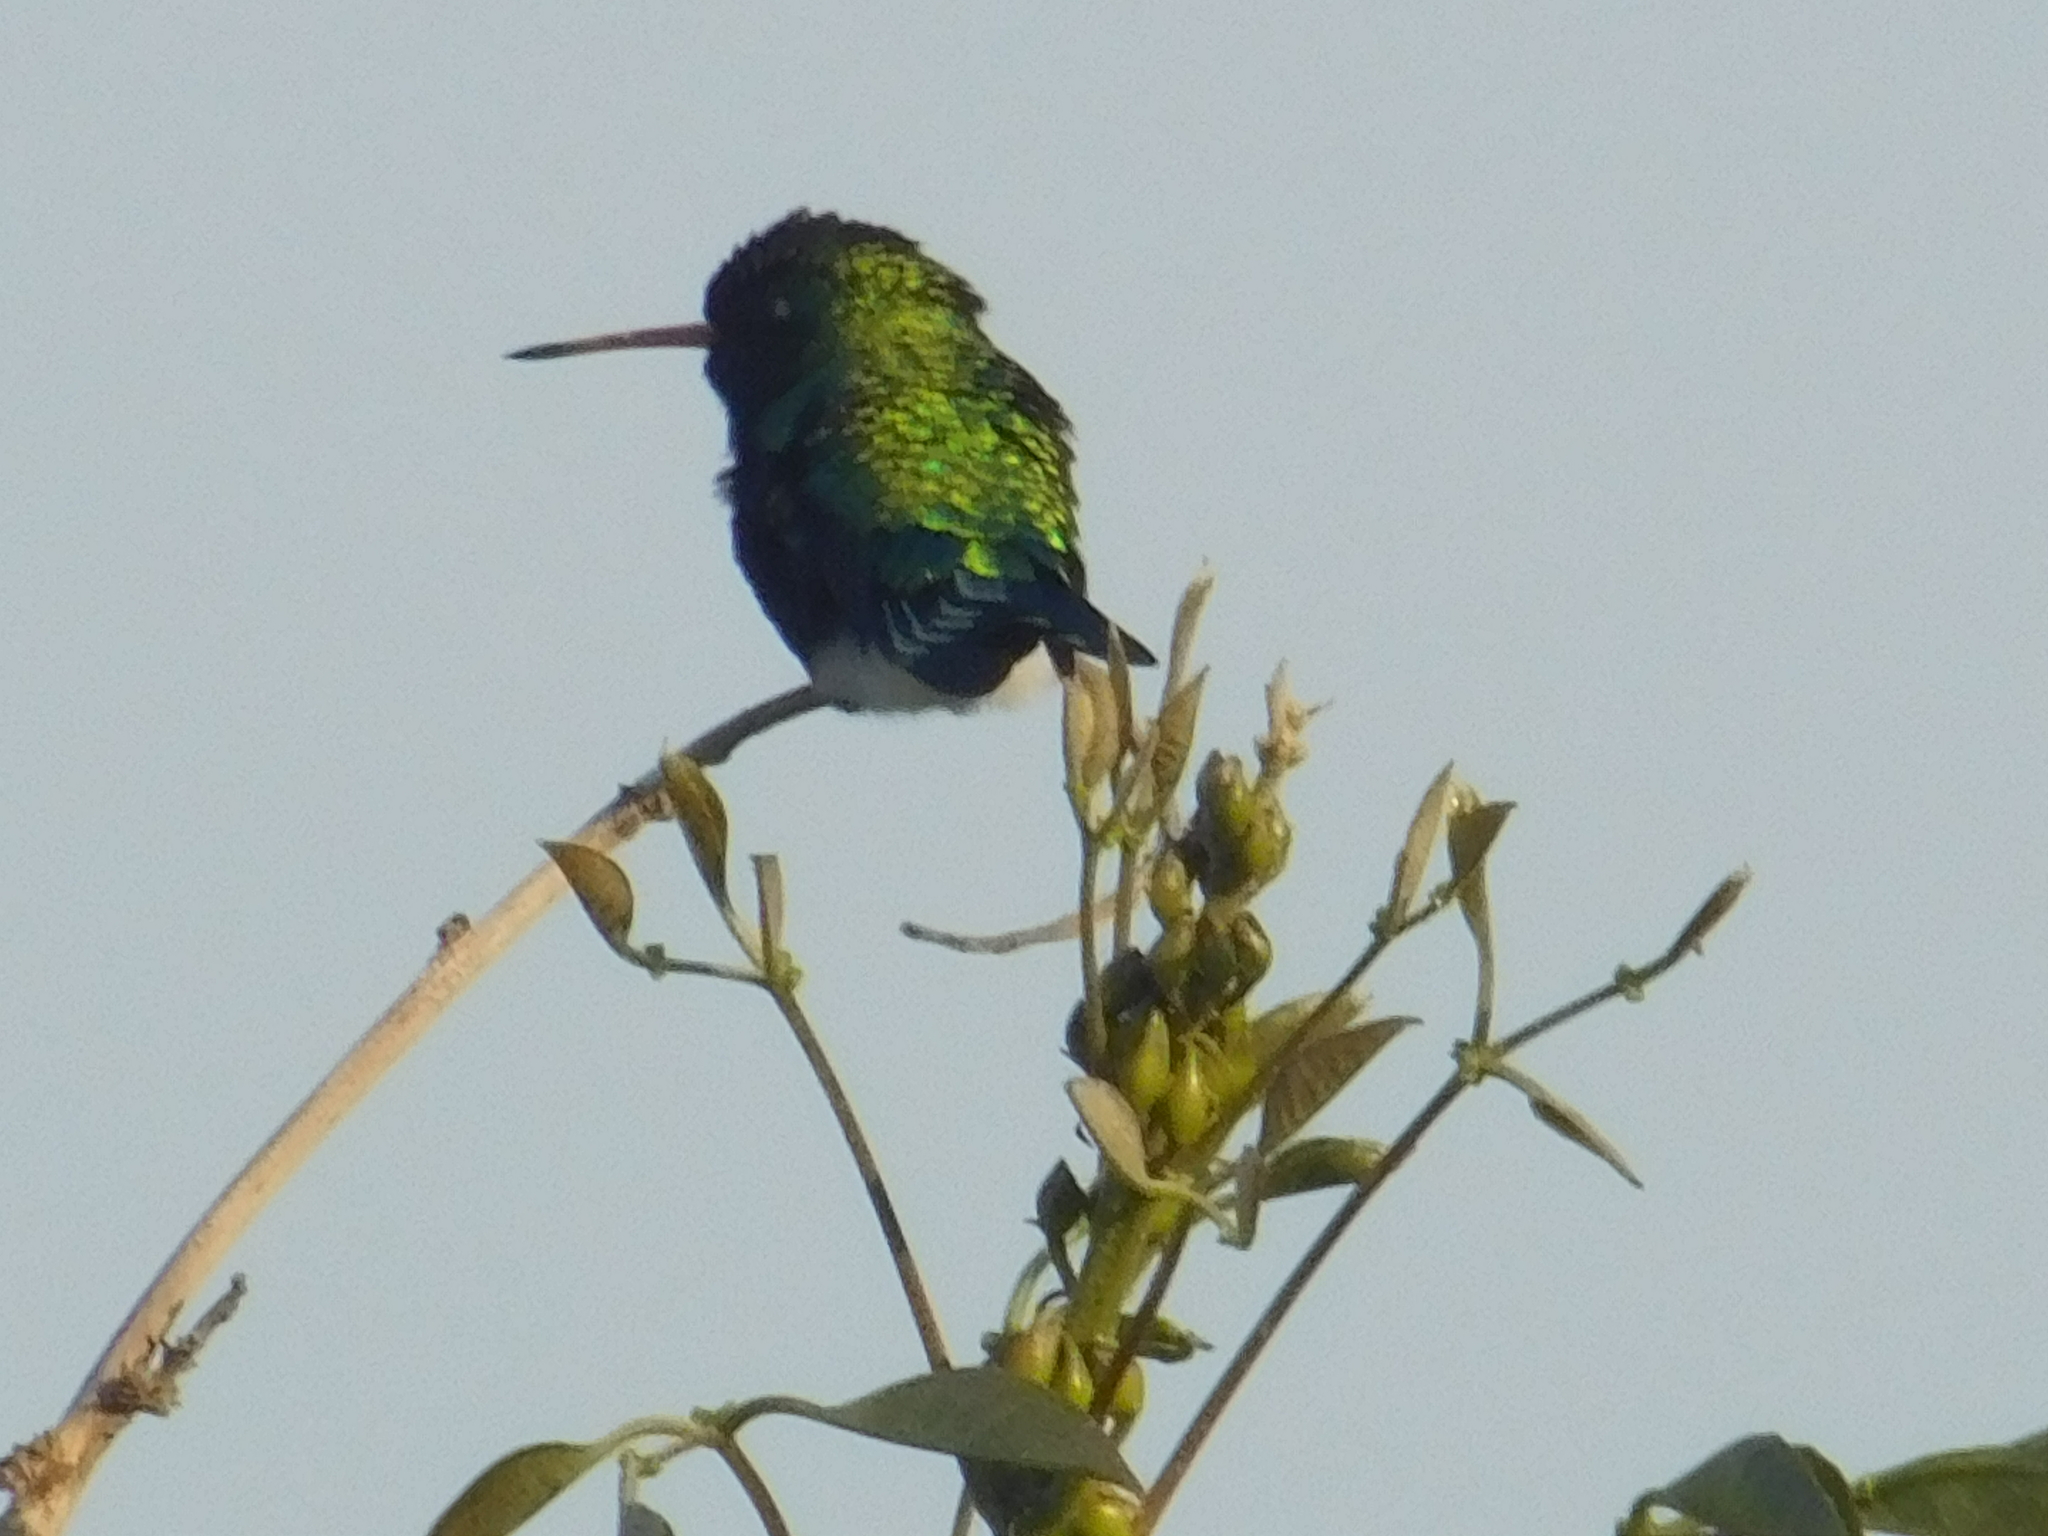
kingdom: Animalia
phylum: Chordata
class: Aves
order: Apodiformes
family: Trochilidae
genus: Chlorostilbon
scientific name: Chlorostilbon lucidus
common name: Glittering-bellied emerald
